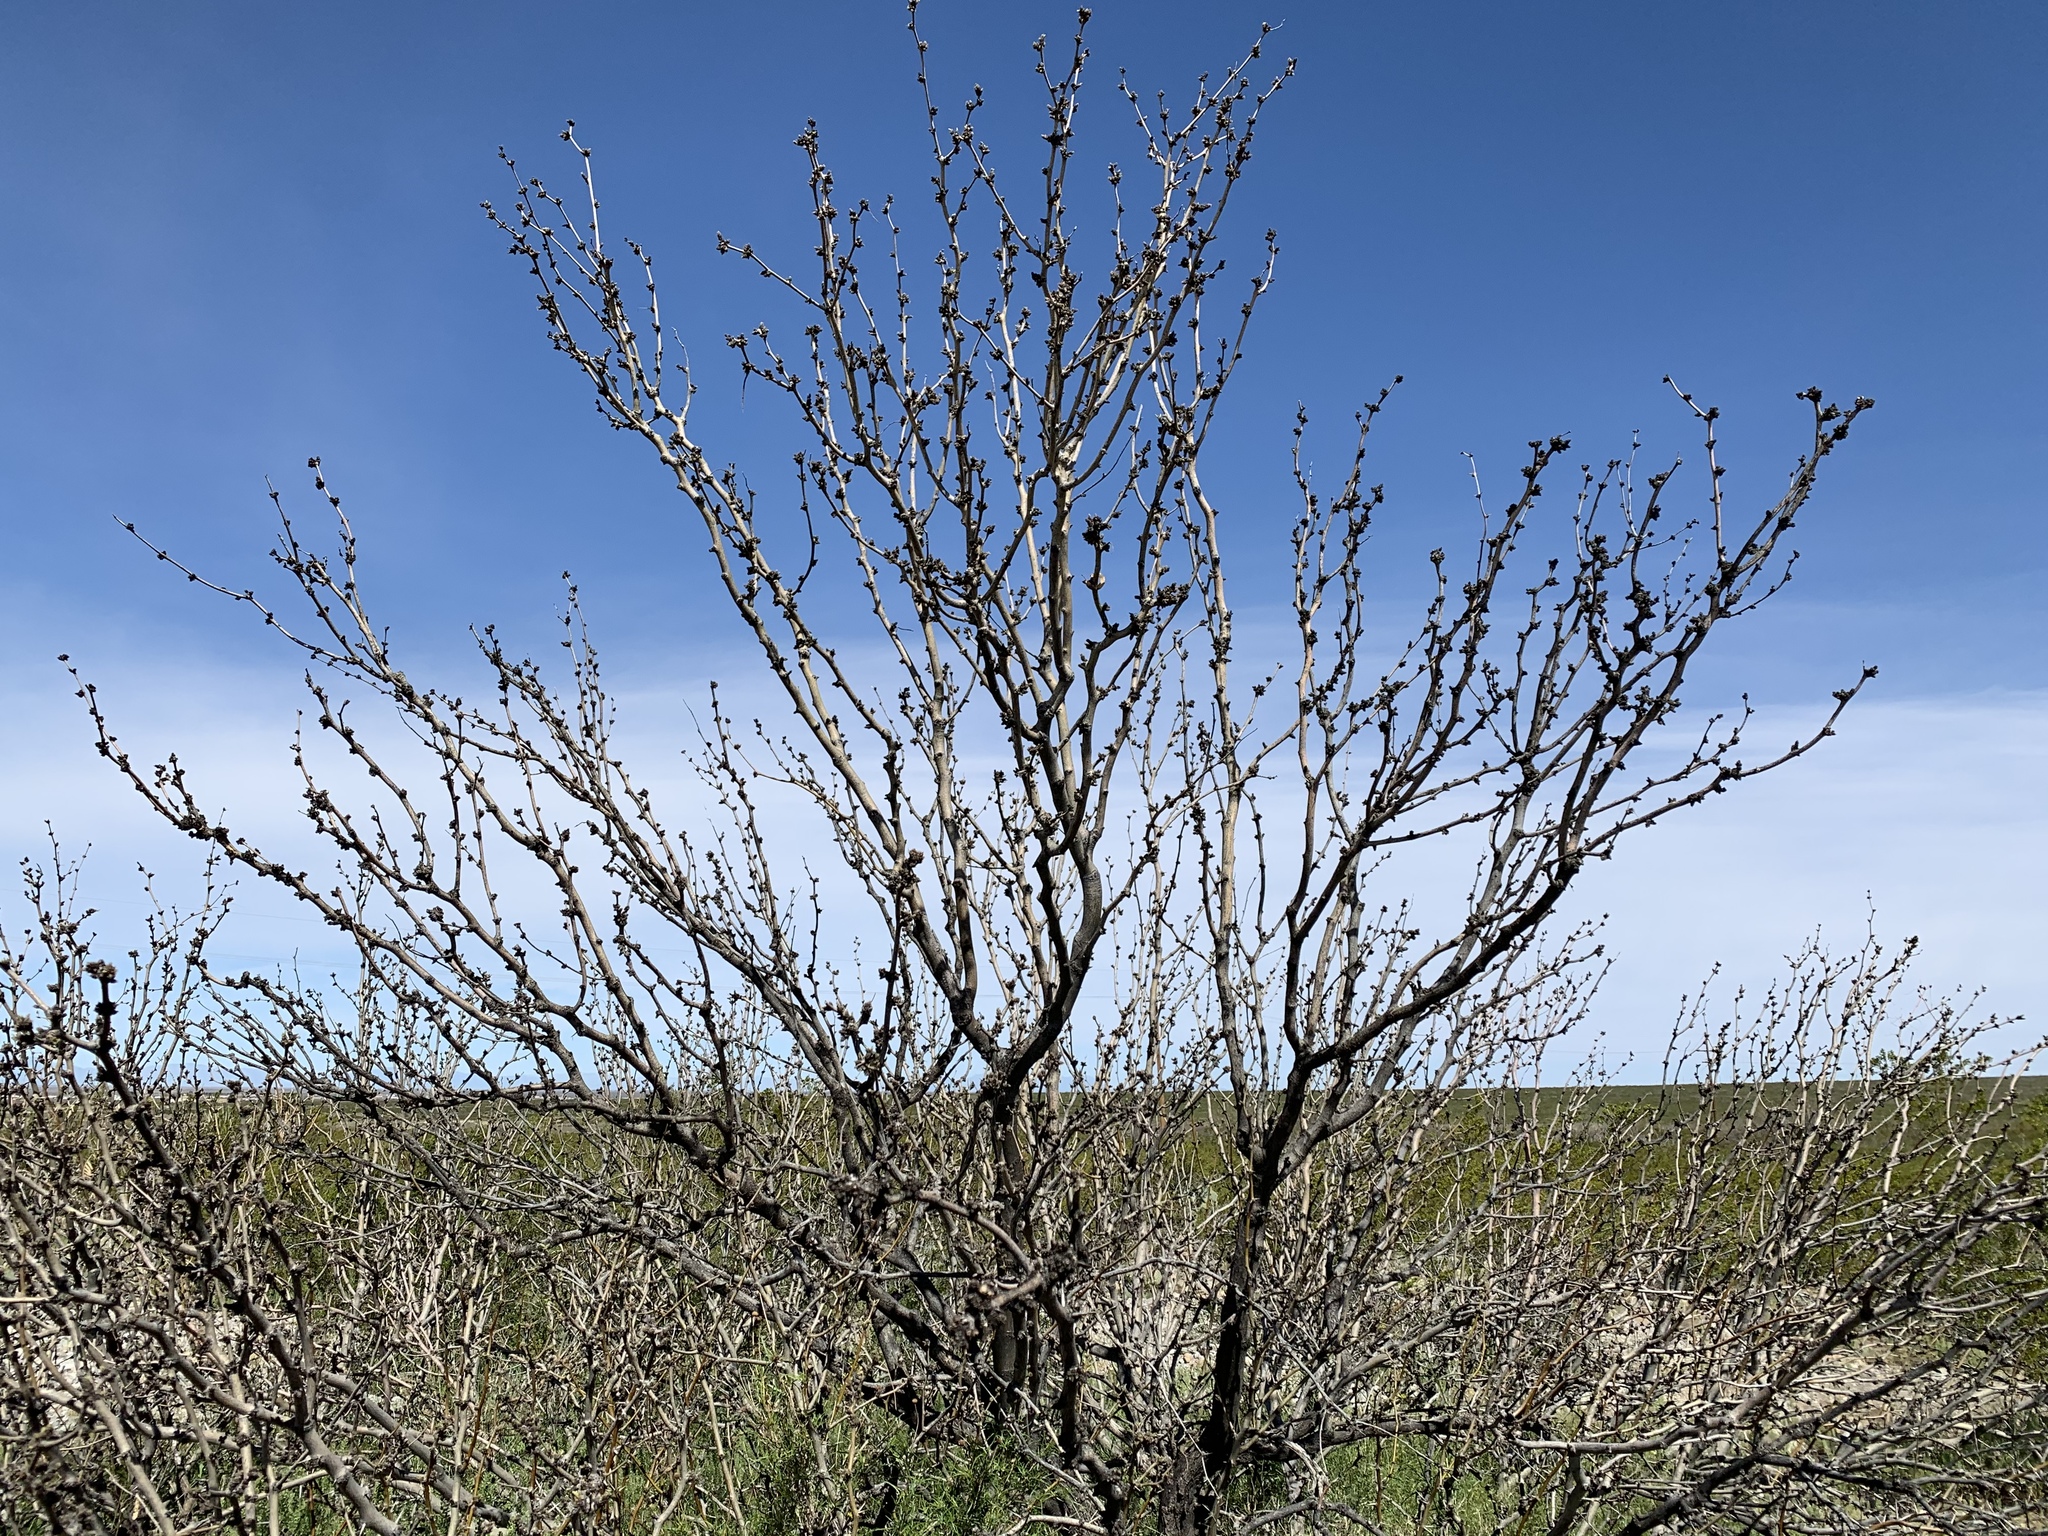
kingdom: Plantae
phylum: Tracheophyta
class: Magnoliopsida
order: Fabales
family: Fabaceae
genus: Prosopis
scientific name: Prosopis glandulosa
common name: Honey mesquite
